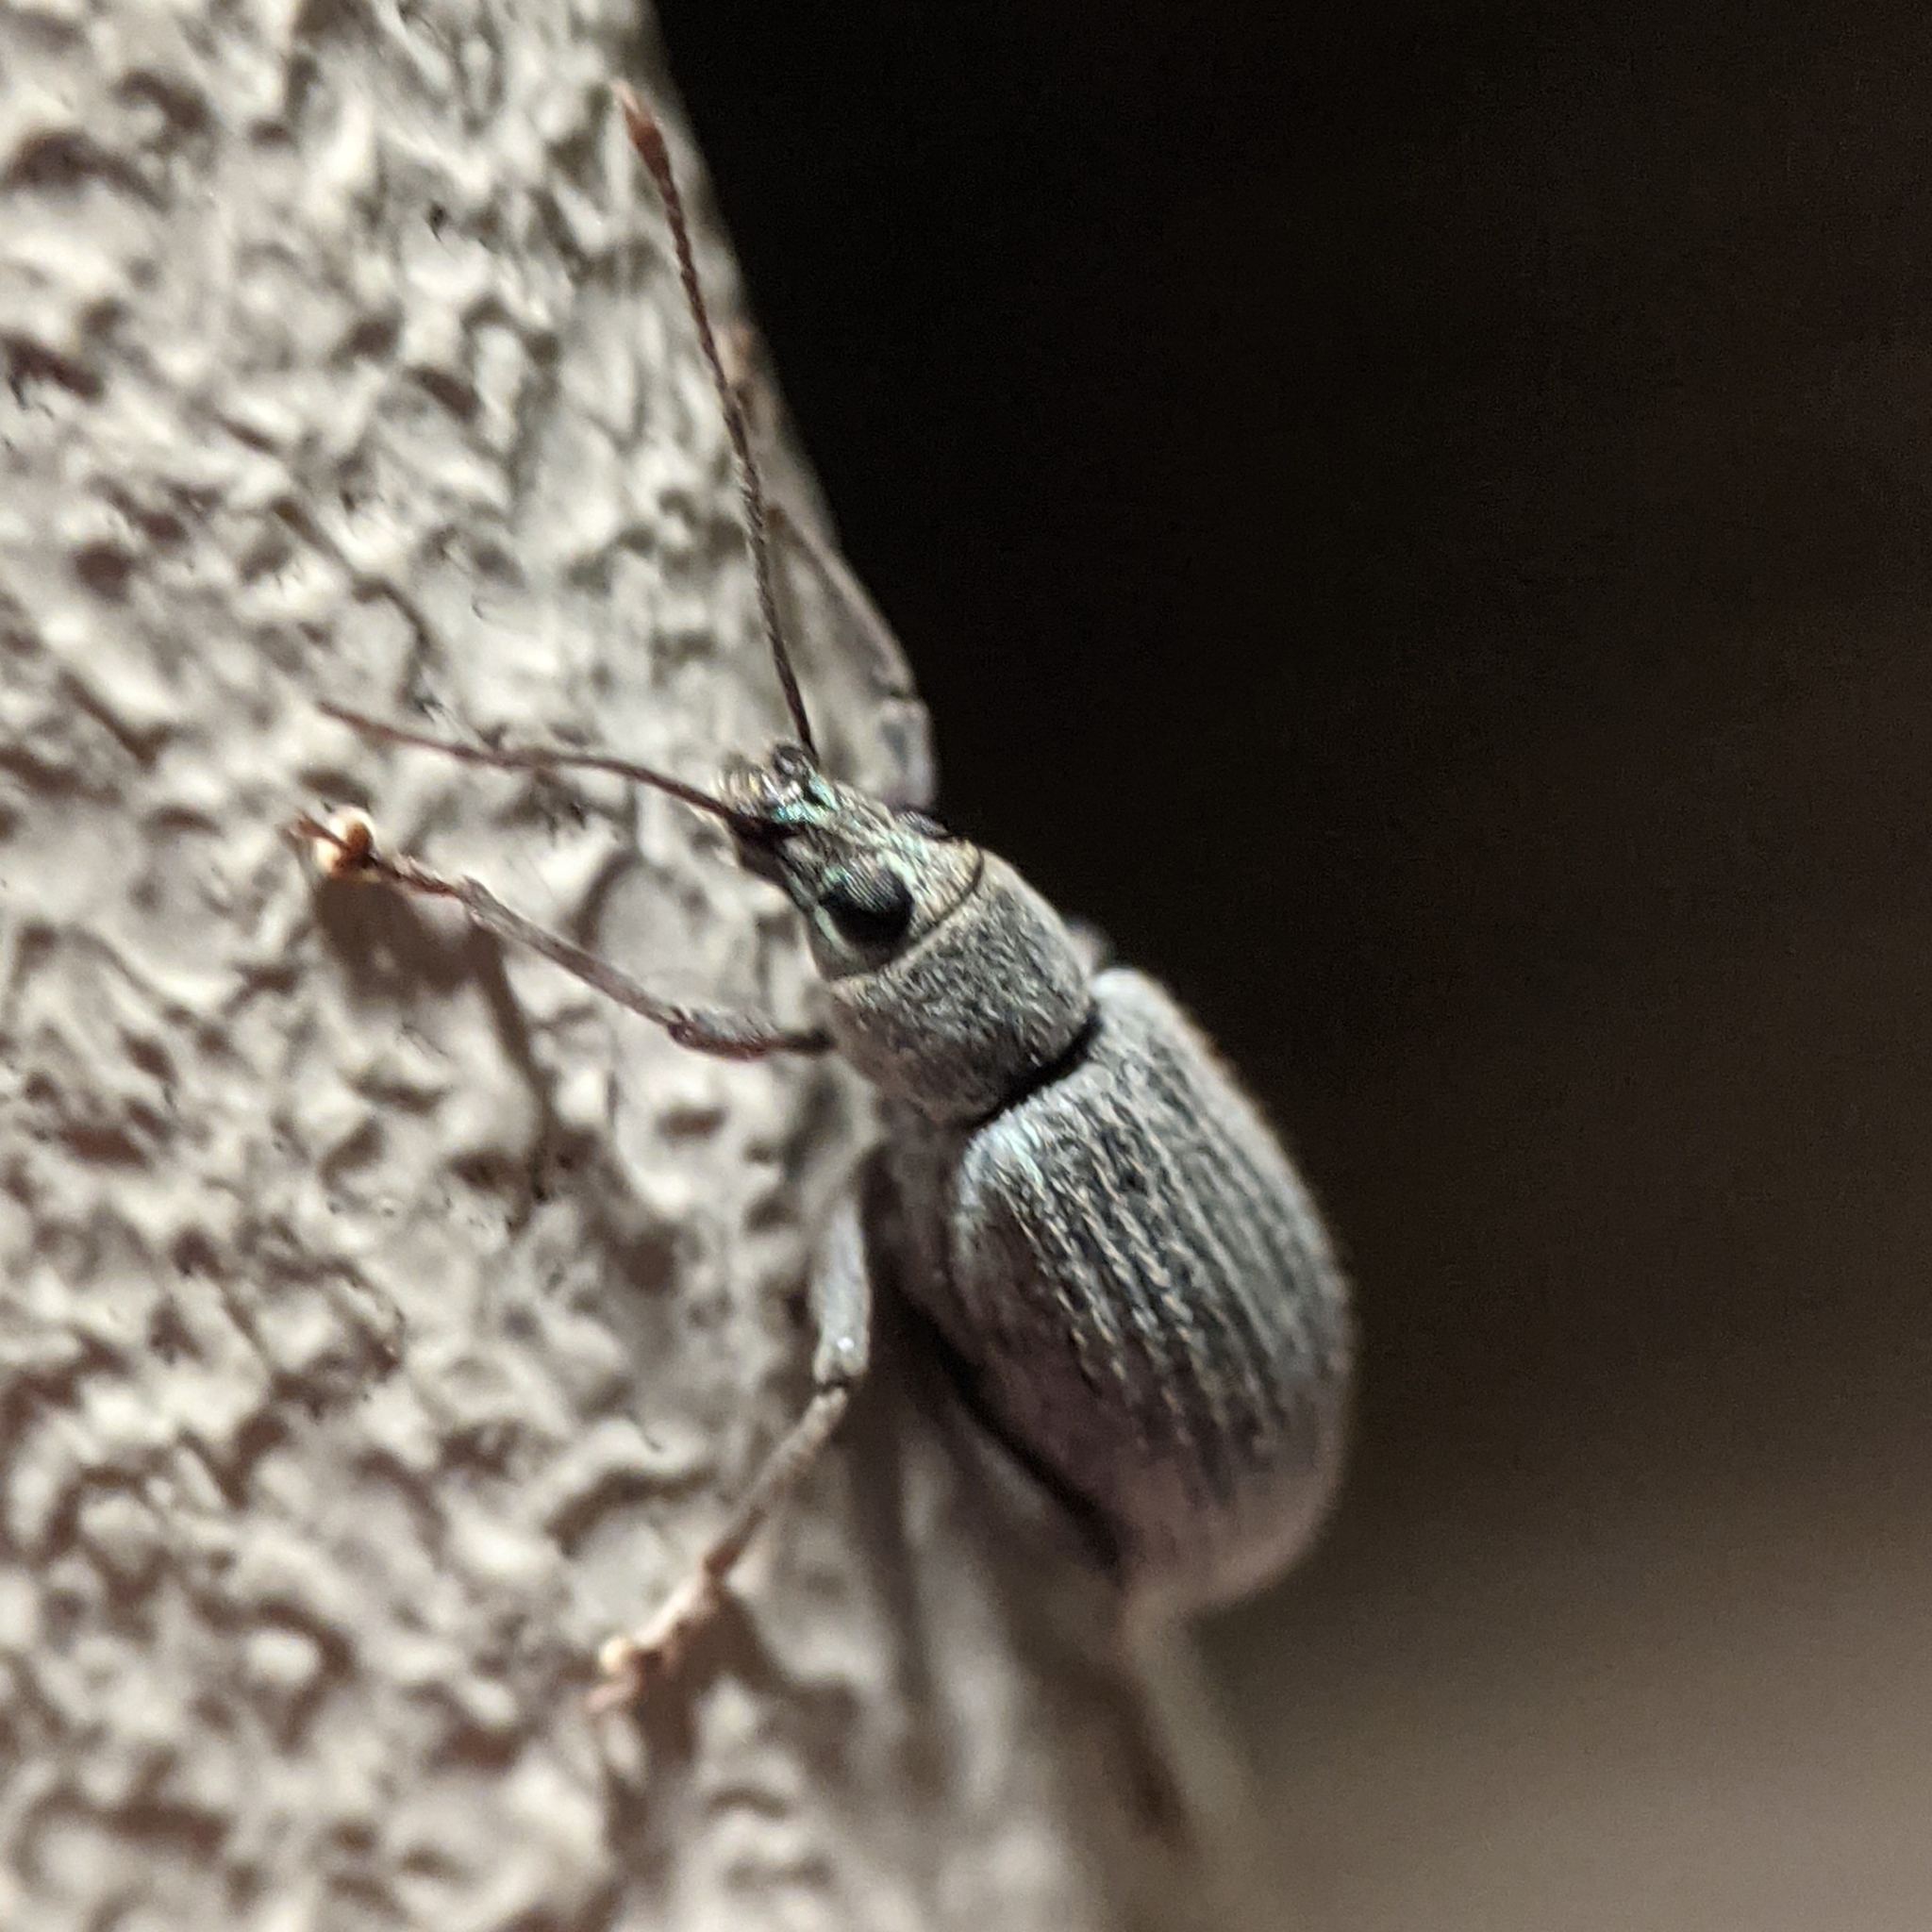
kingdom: Animalia
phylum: Arthropoda
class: Insecta
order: Coleoptera
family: Curculionidae
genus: Cyrtepistomus
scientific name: Cyrtepistomus castaneus
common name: Weevil
